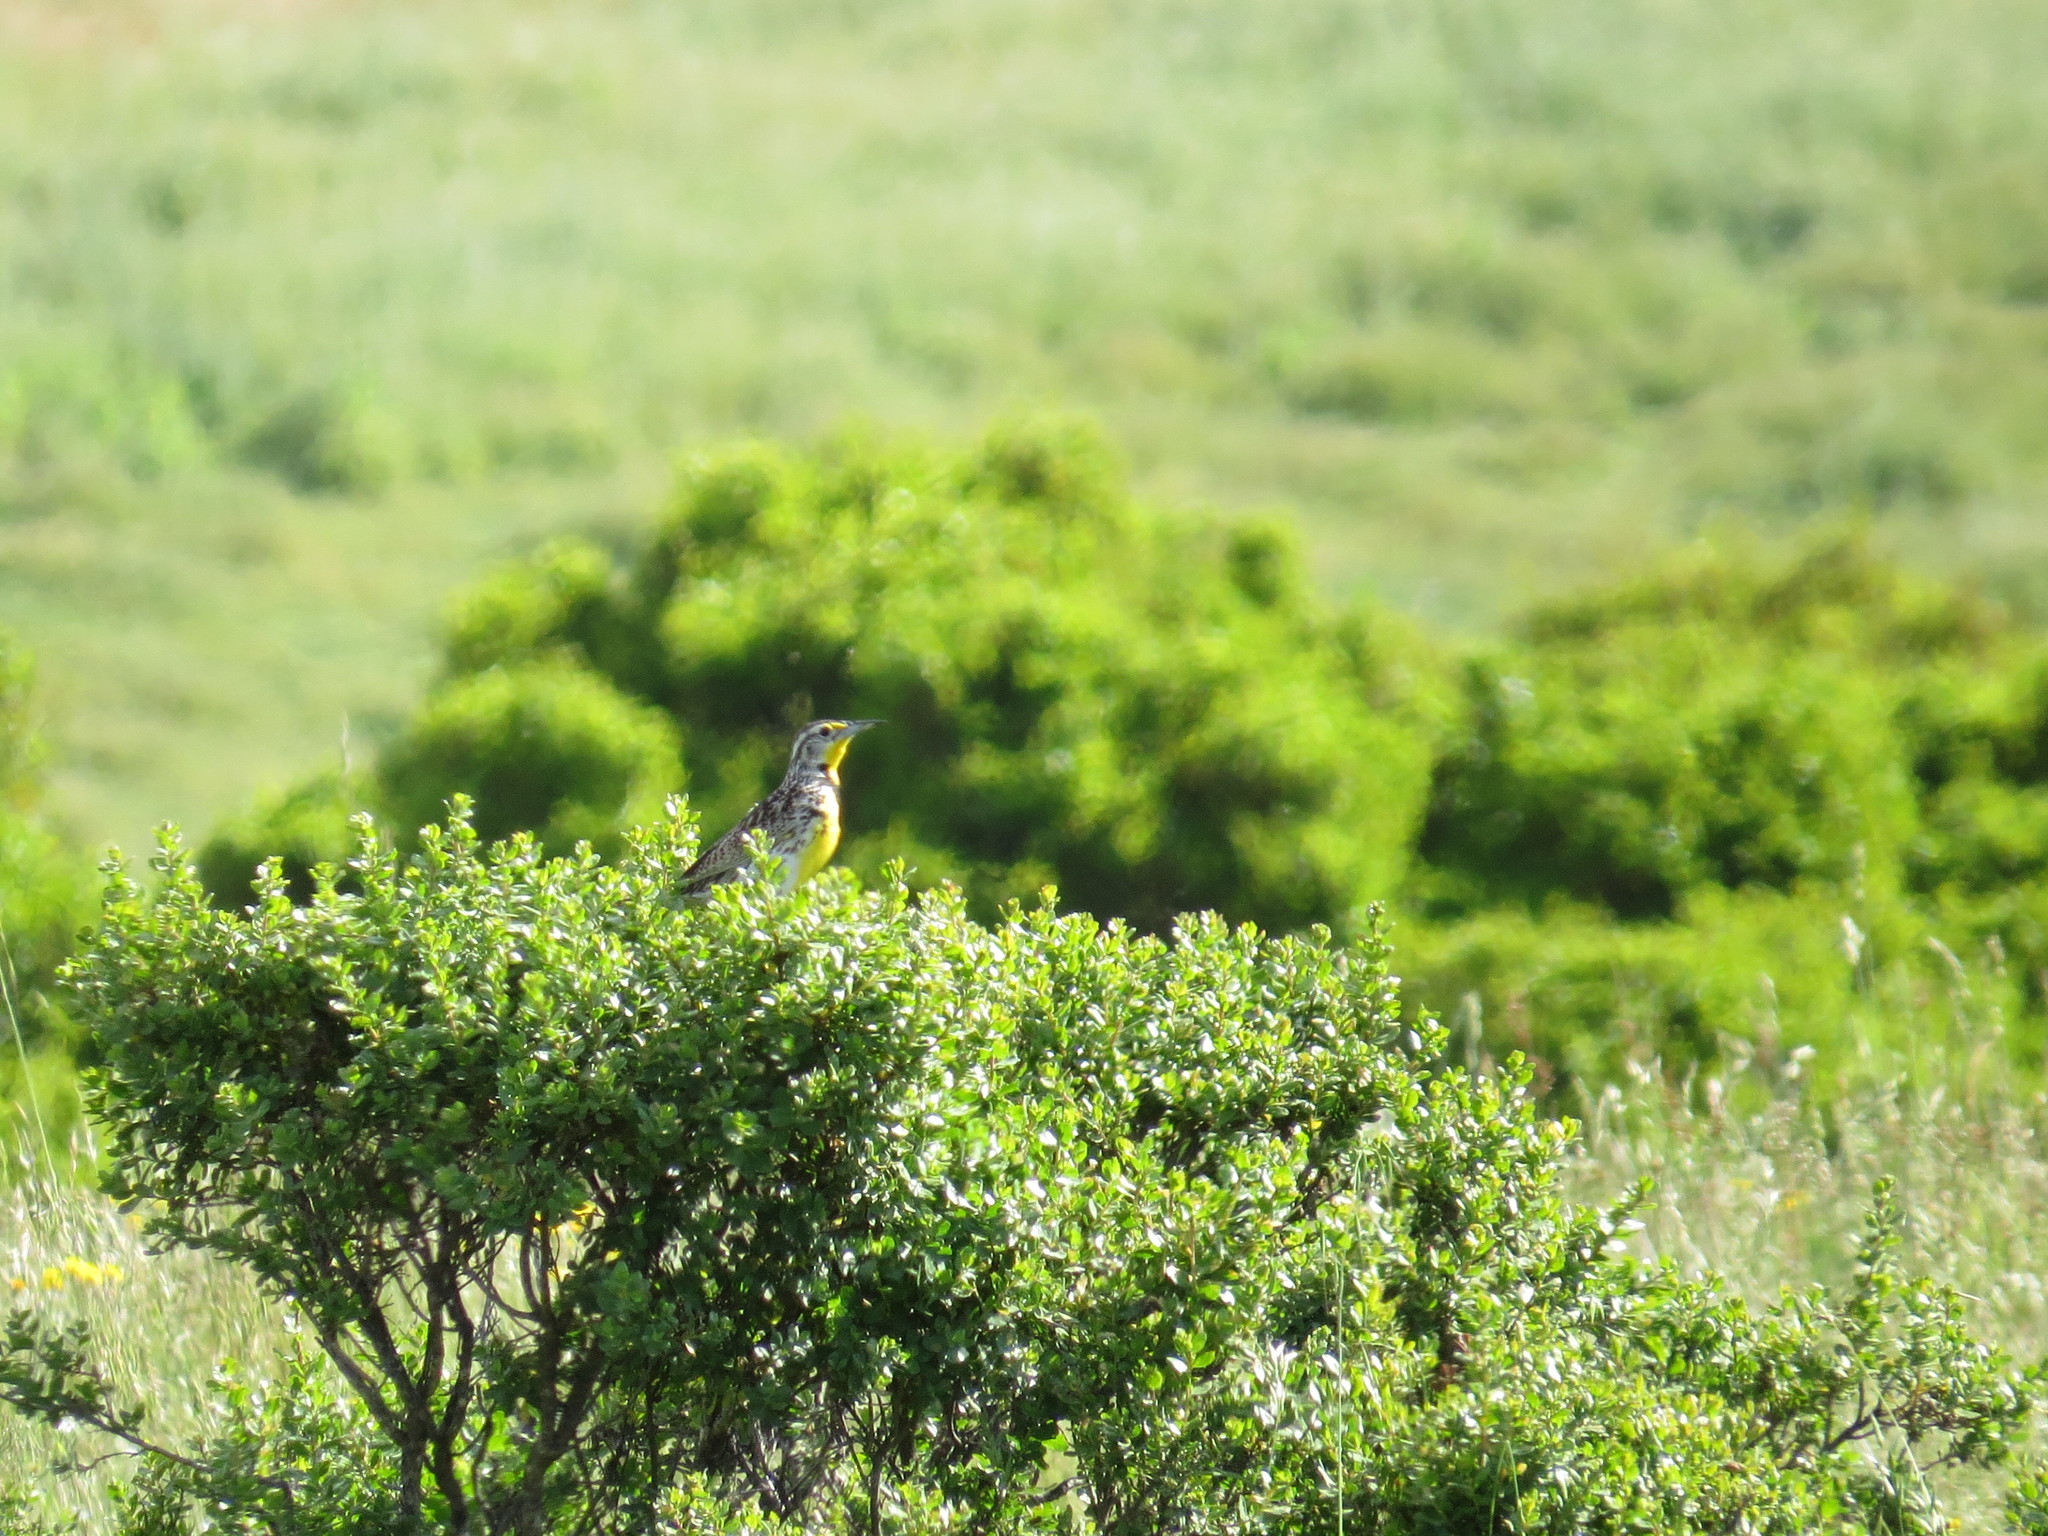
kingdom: Animalia
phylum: Chordata
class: Aves
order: Passeriformes
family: Icteridae
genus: Sturnella
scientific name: Sturnella neglecta
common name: Western meadowlark
